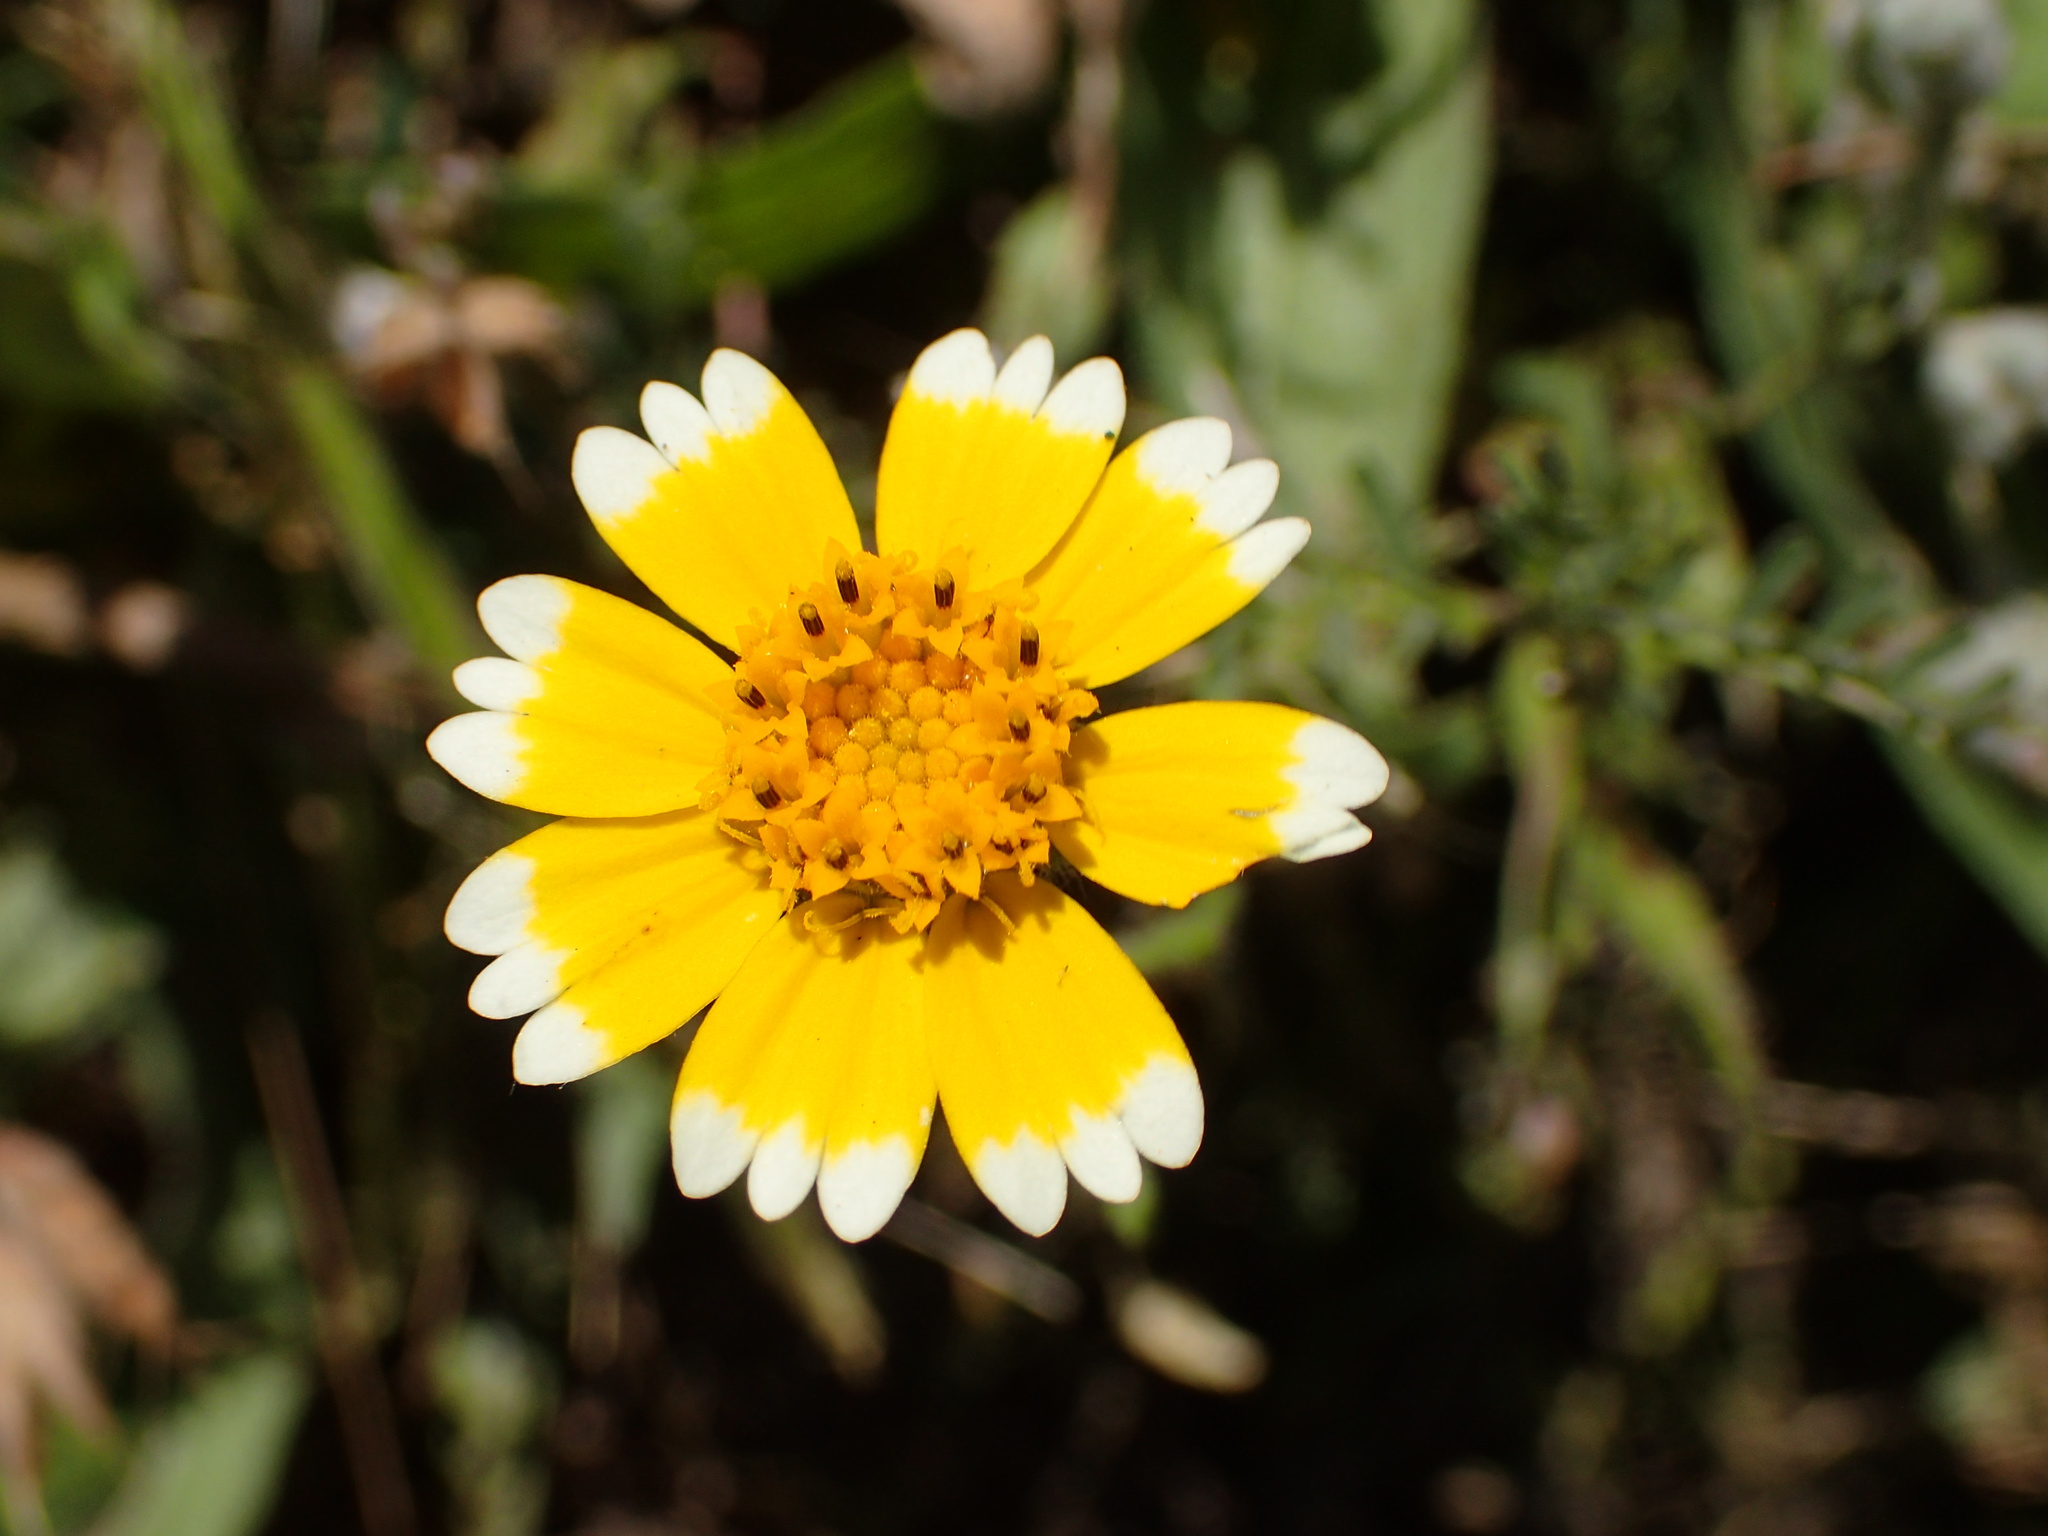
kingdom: Plantae
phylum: Tracheophyta
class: Magnoliopsida
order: Asterales
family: Asteraceae
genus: Layia
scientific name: Layia platyglossa
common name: Tidy-tips
